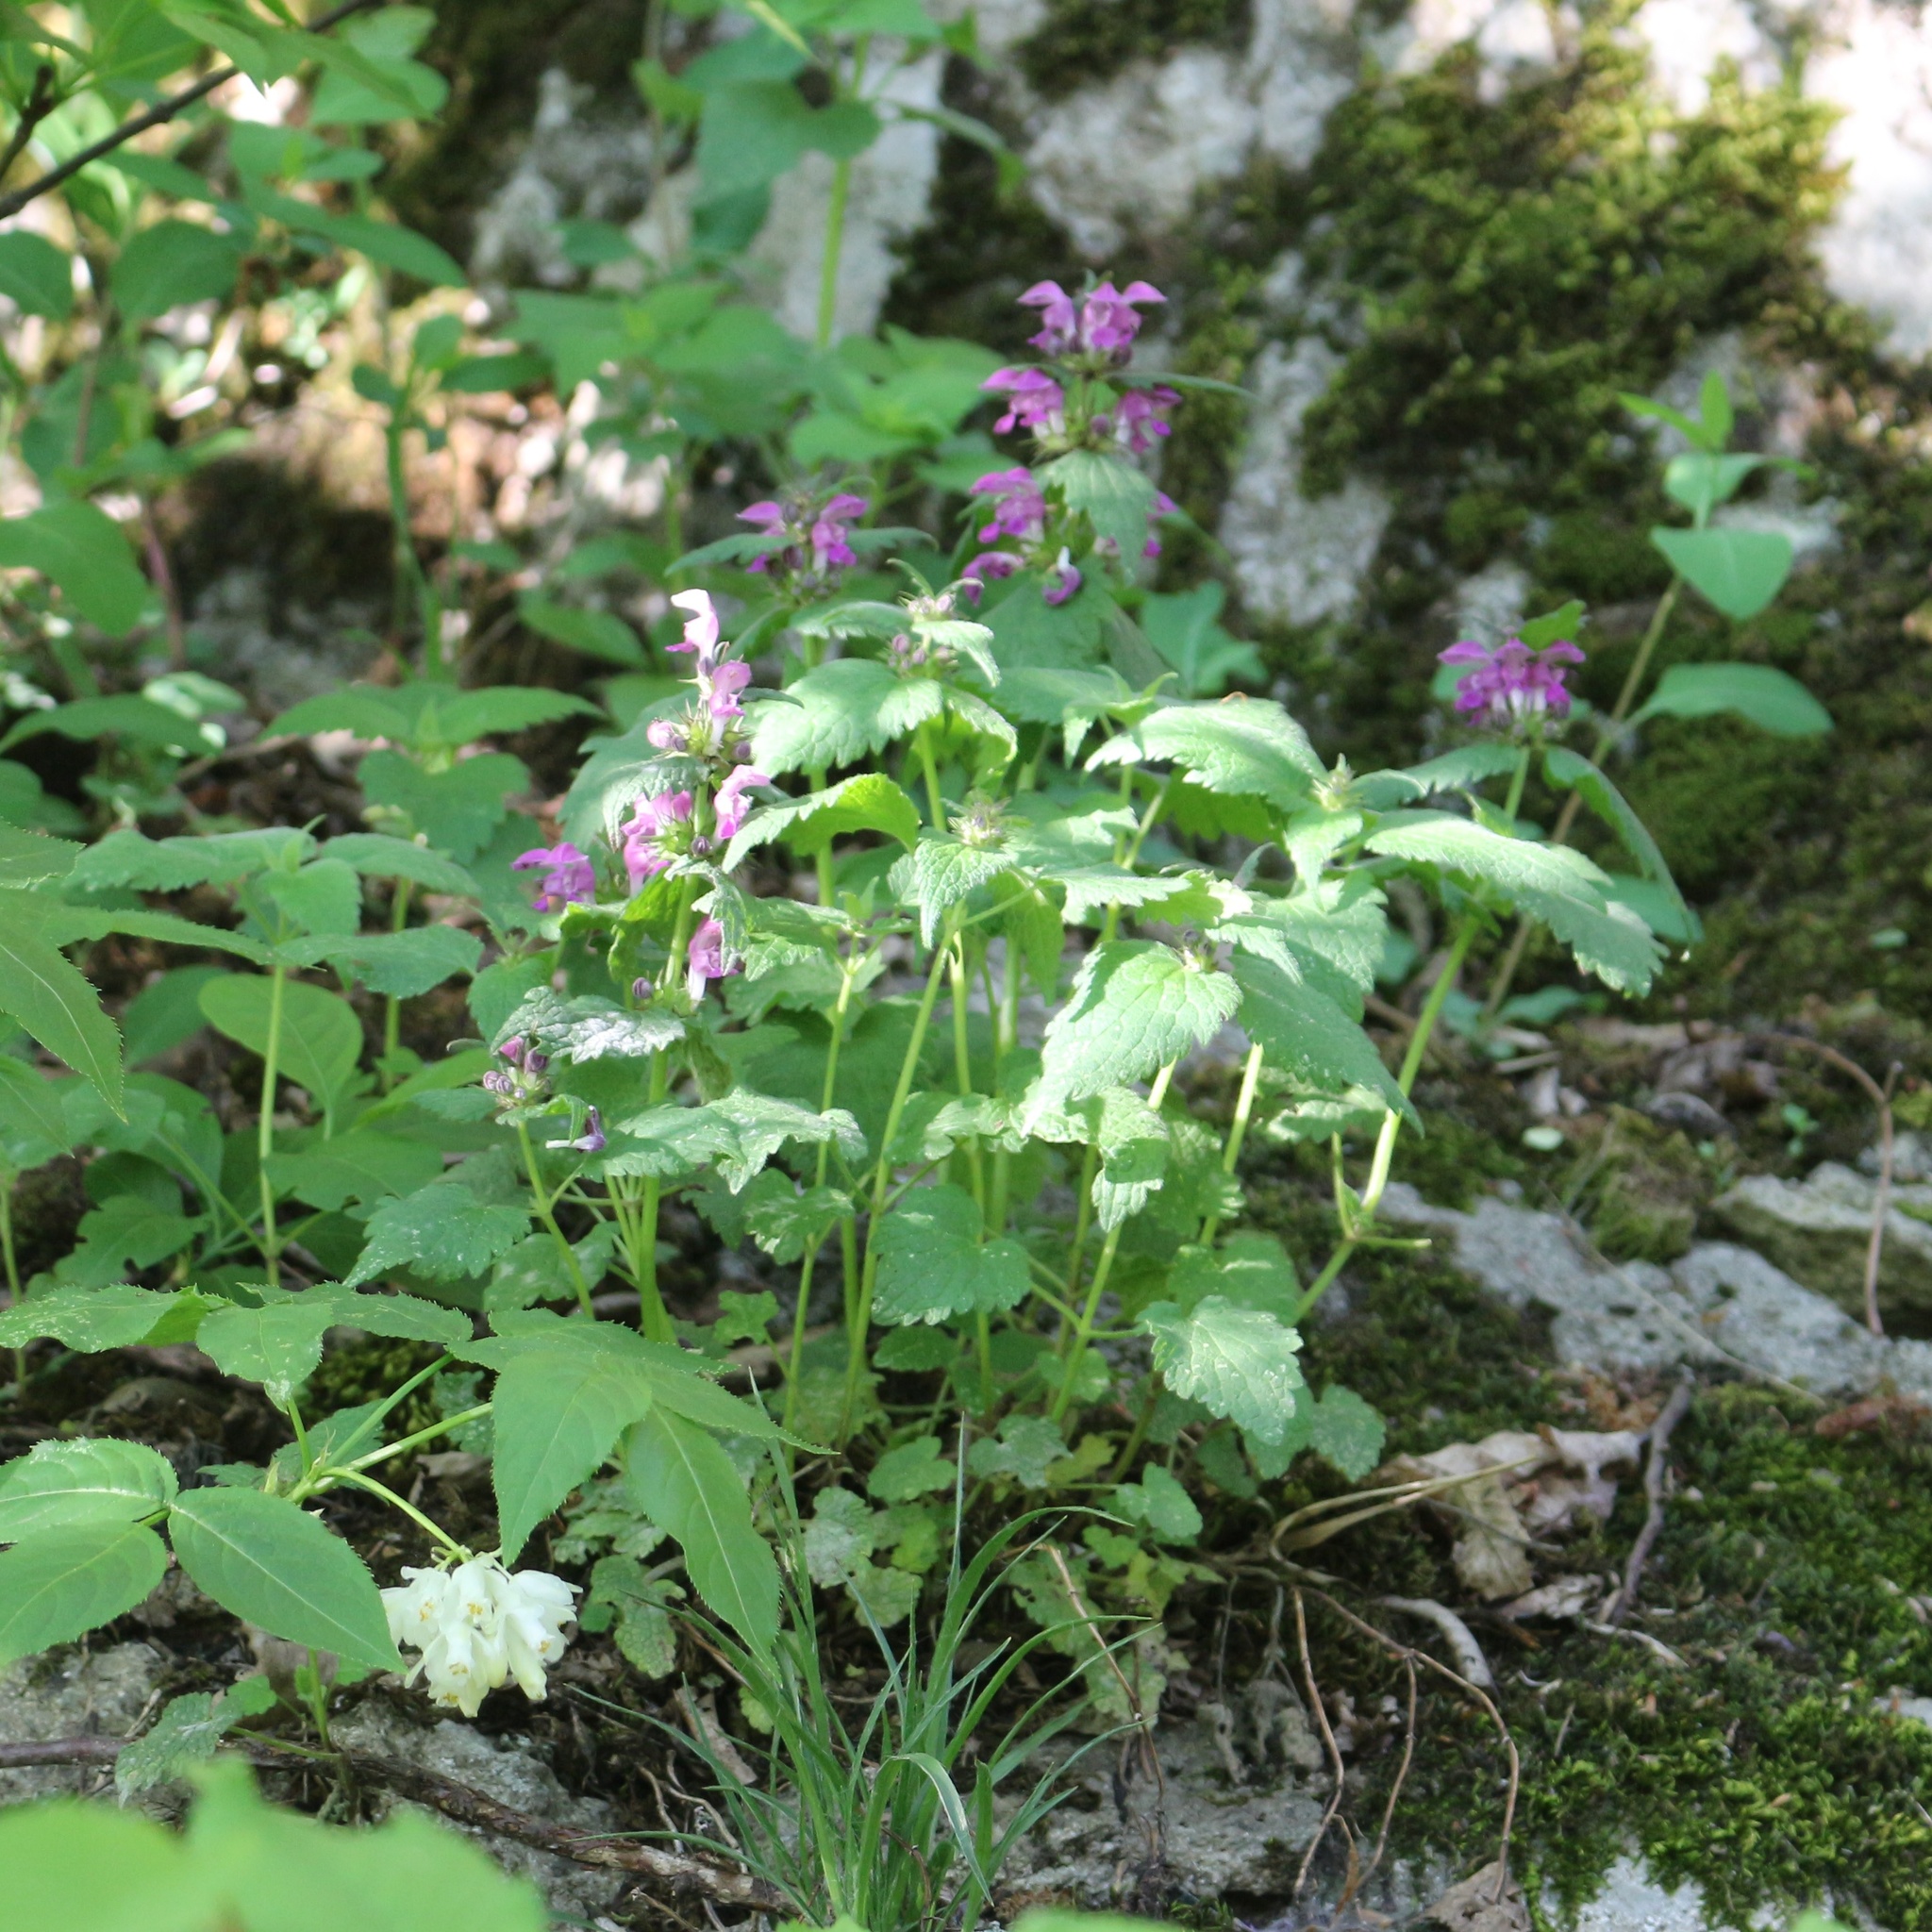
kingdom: Plantae
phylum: Tracheophyta
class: Magnoliopsida
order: Lamiales
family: Lamiaceae
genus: Lamium
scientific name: Lamium maculatum
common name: Spotted dead-nettle
